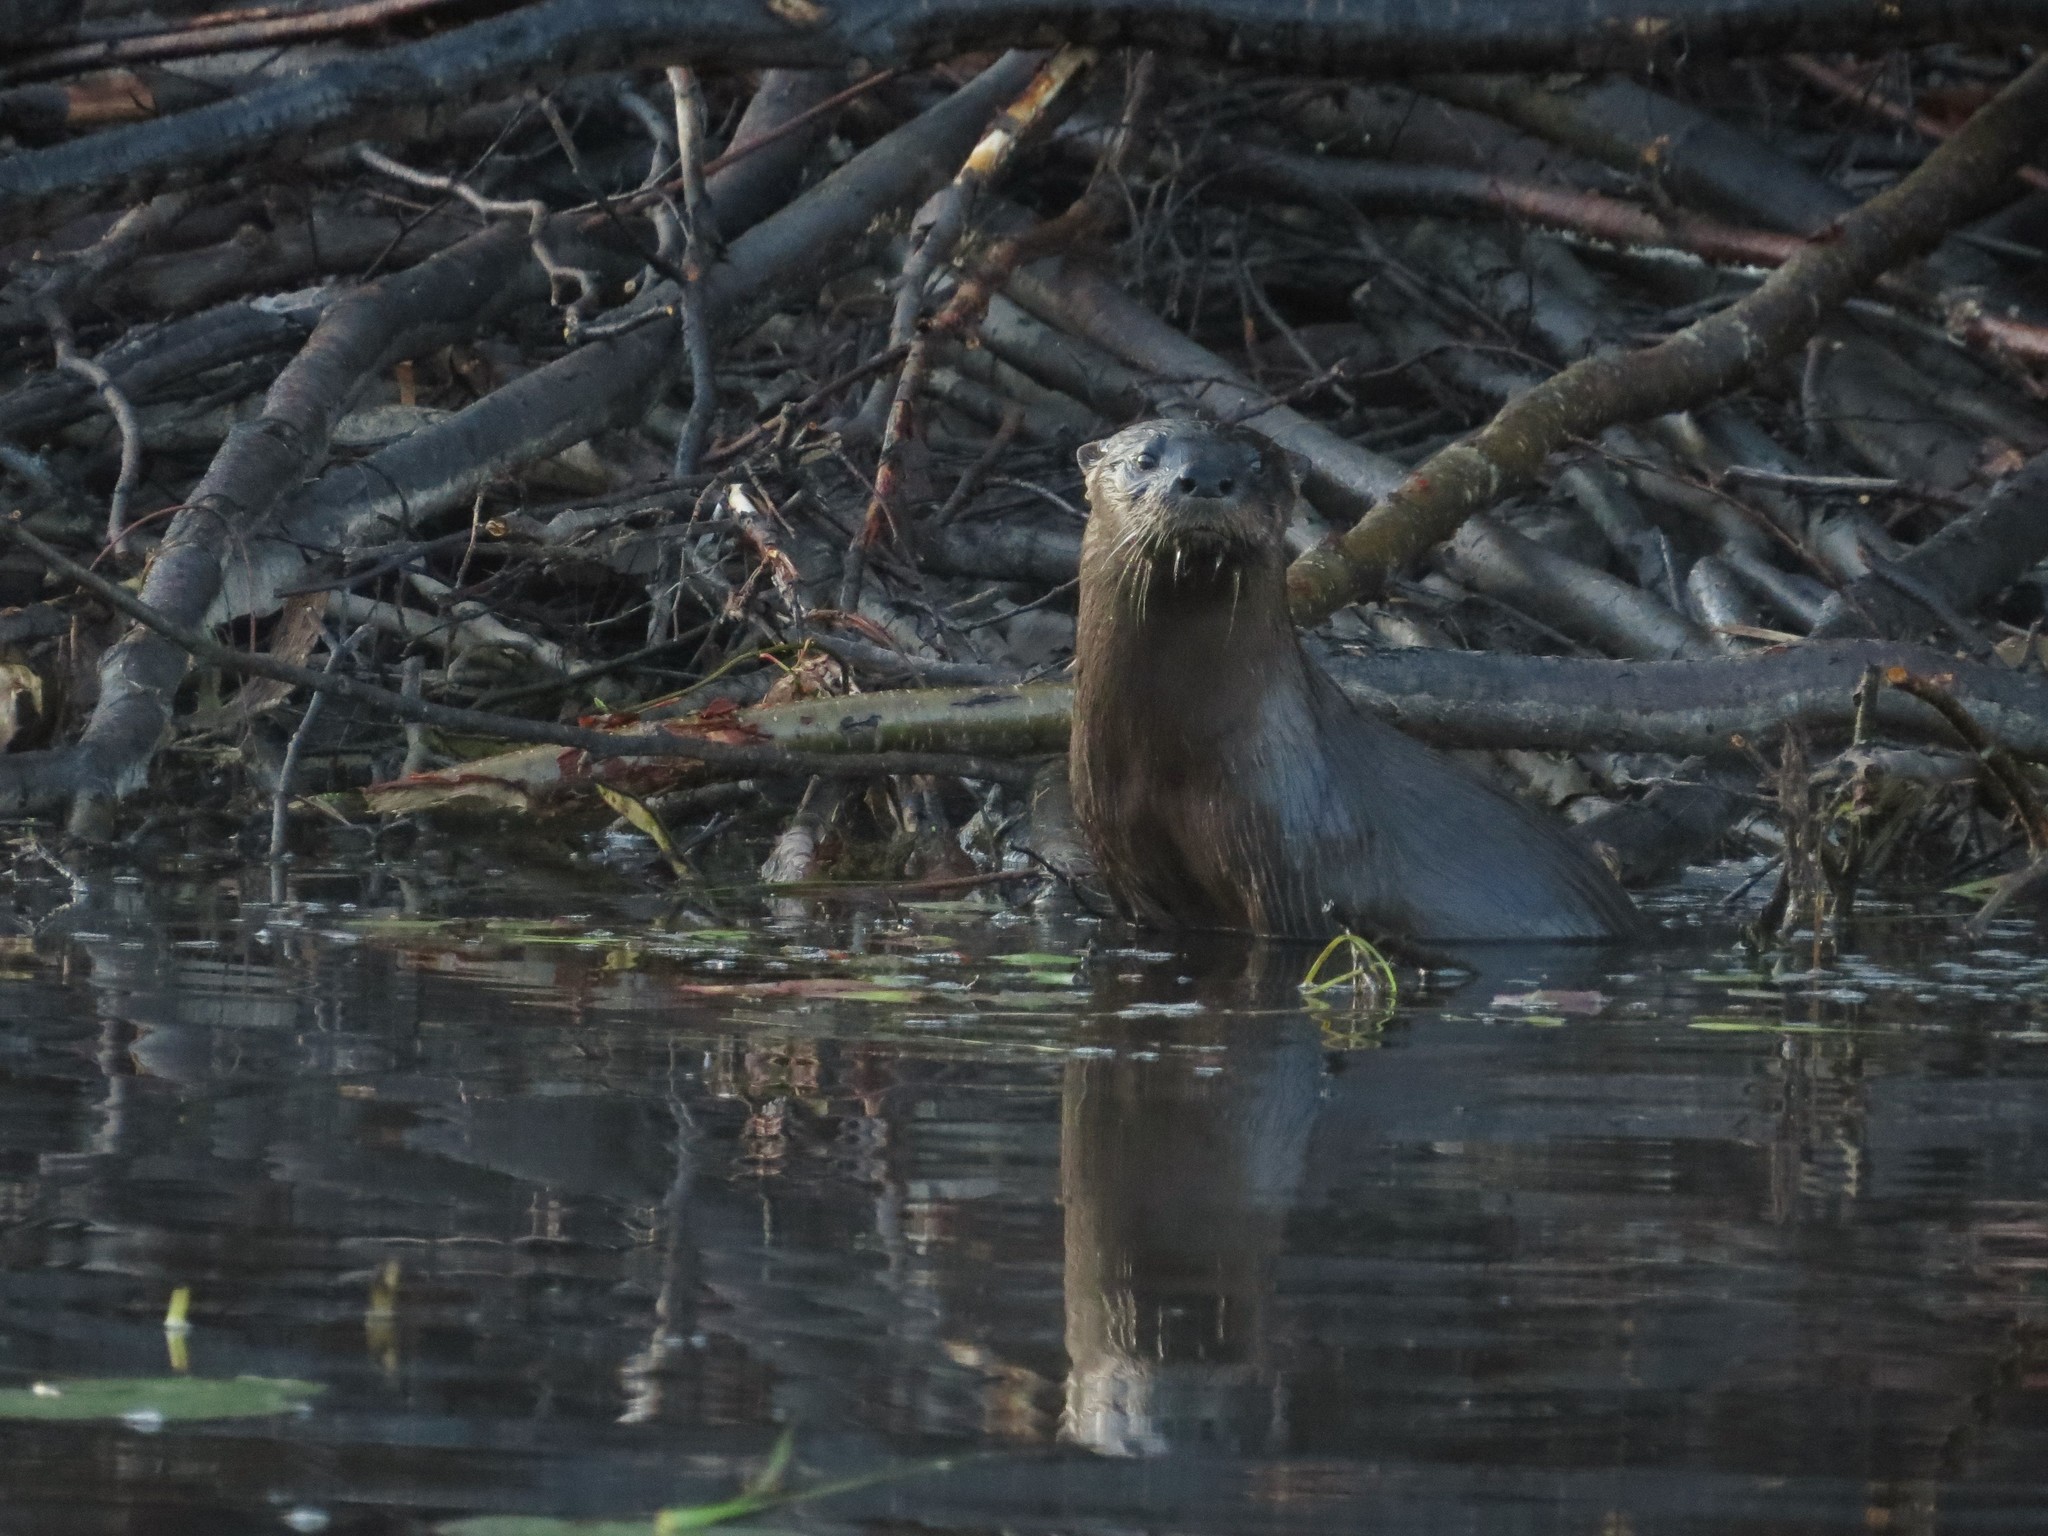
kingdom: Animalia
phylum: Chordata
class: Mammalia
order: Carnivora
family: Mustelidae
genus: Lontra
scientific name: Lontra canadensis
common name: North american river otter
